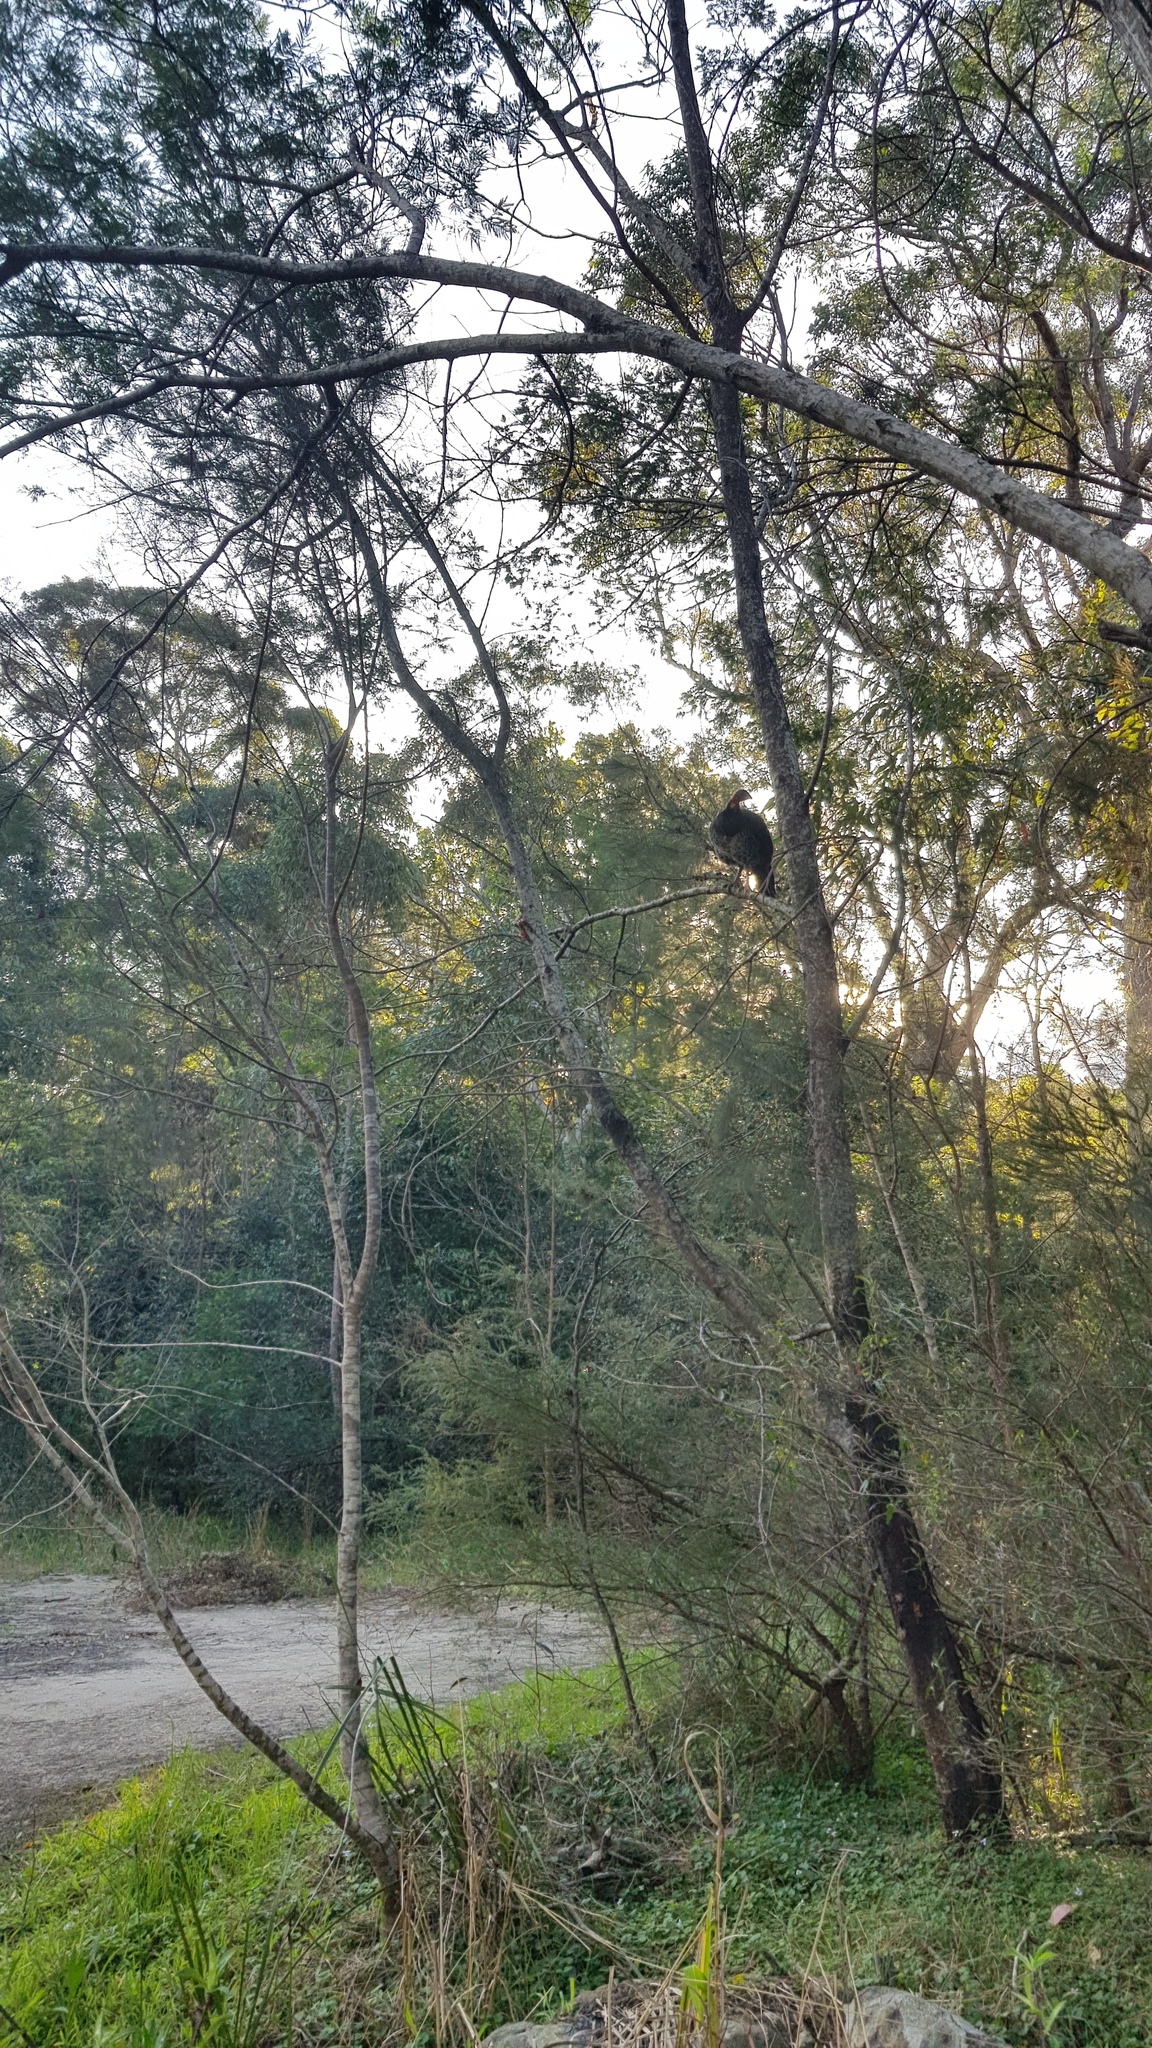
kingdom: Animalia
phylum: Chordata
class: Aves
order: Galliformes
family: Megapodiidae
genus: Alectura
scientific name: Alectura lathami
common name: Australian brushturkey
